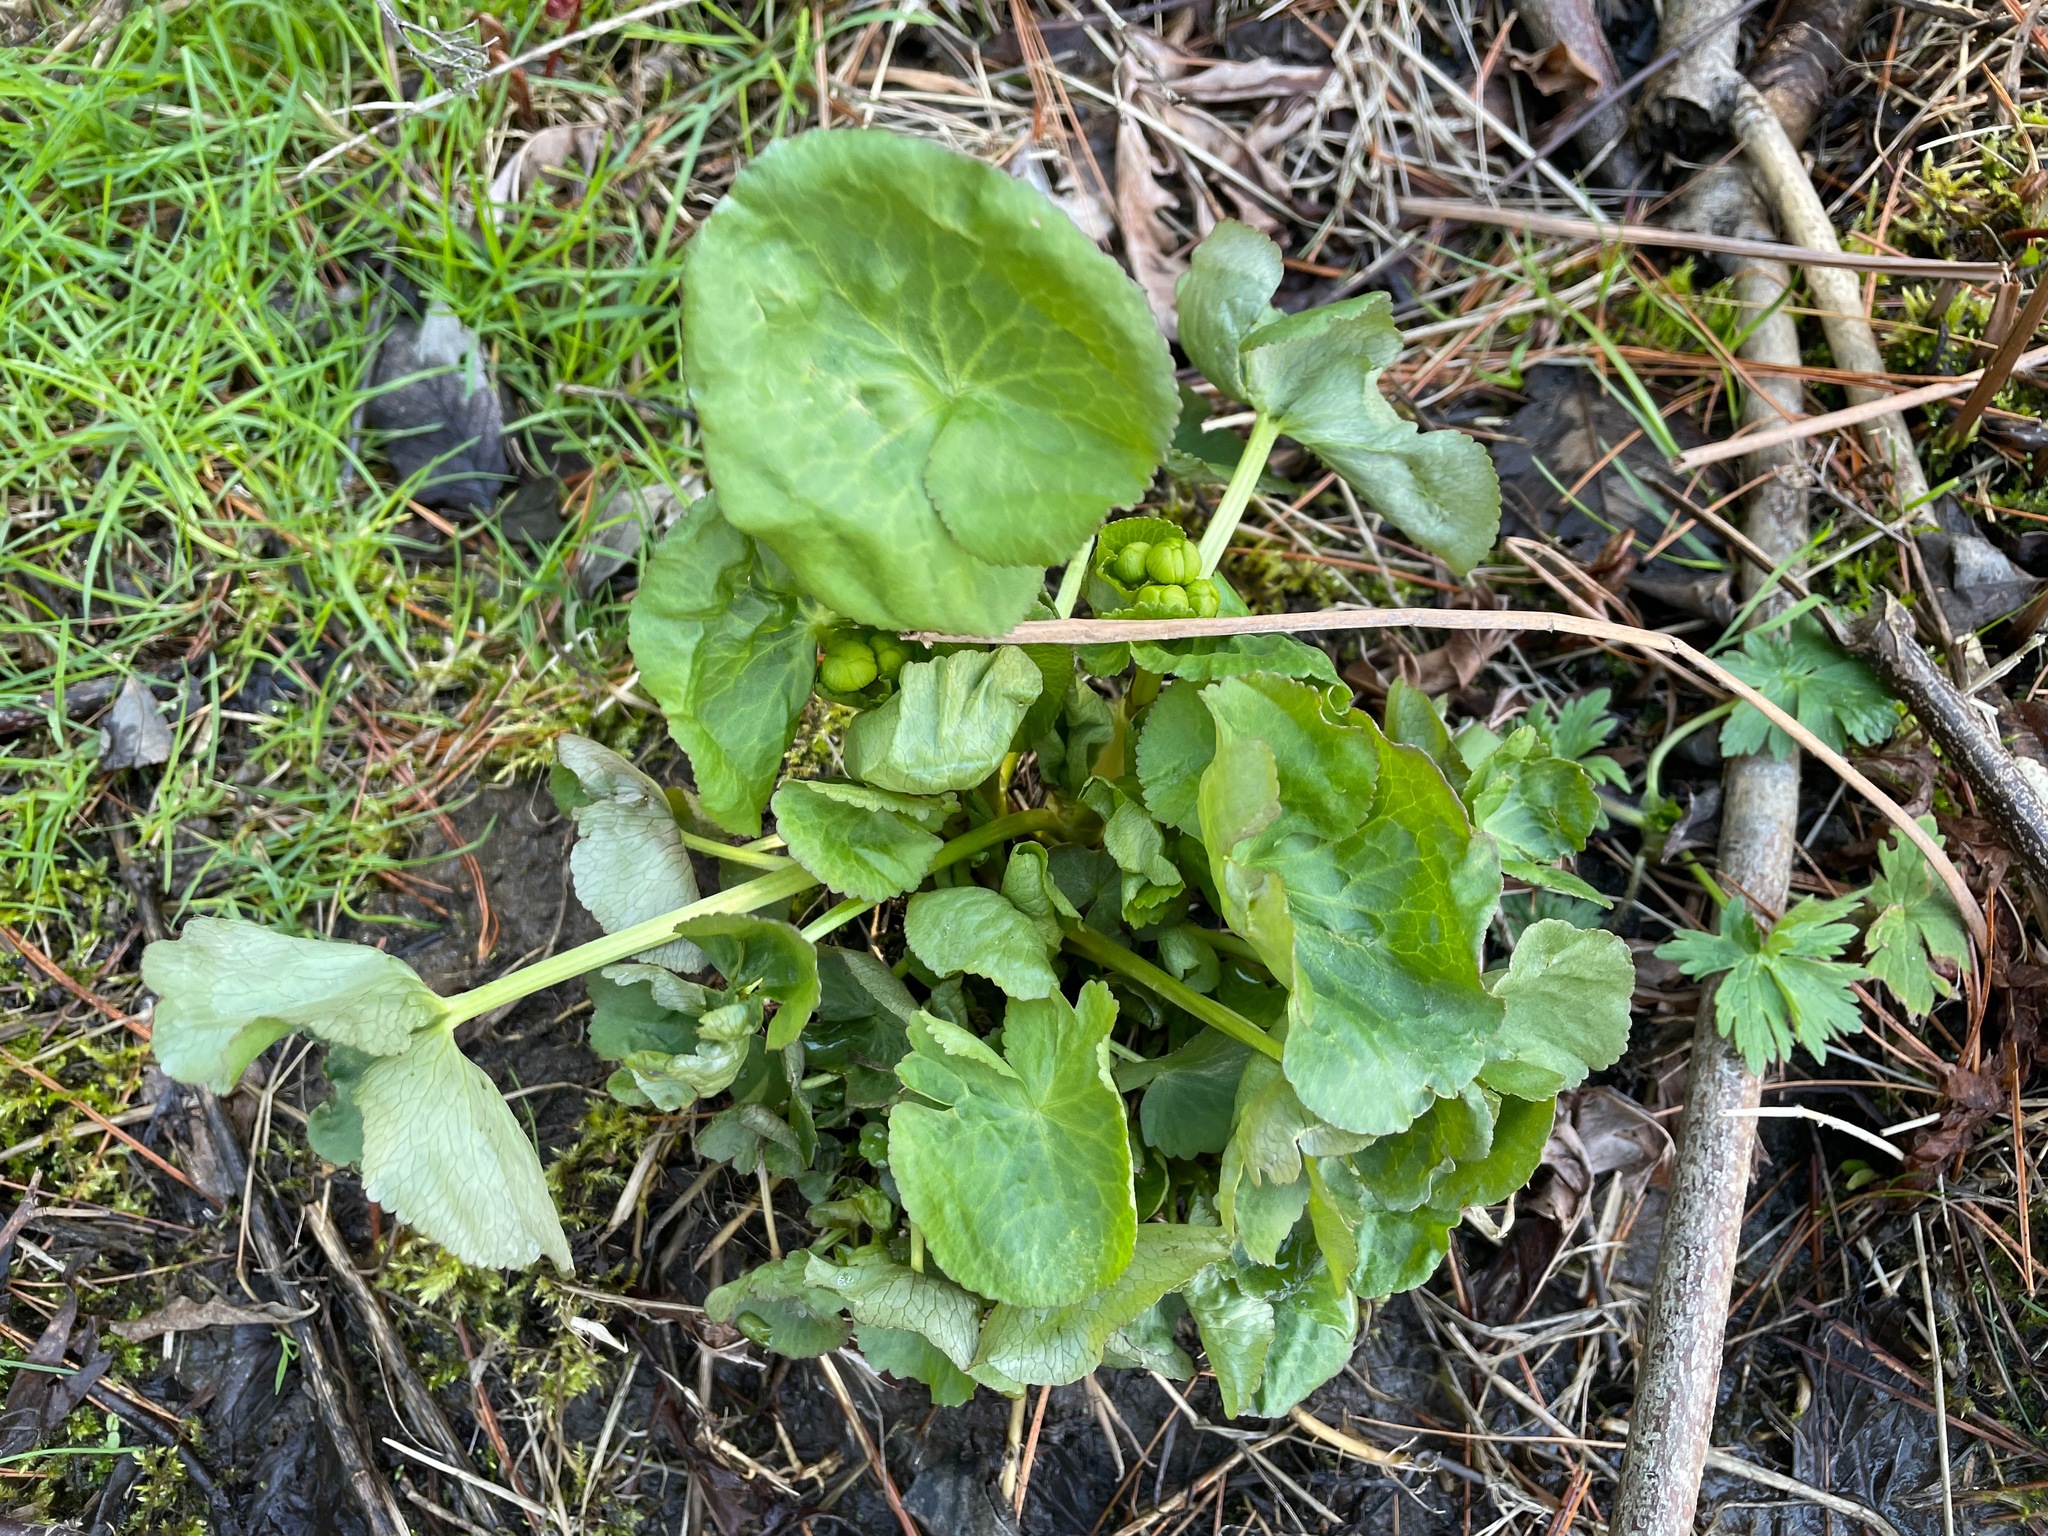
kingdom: Plantae
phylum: Tracheophyta
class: Magnoliopsida
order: Ranunculales
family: Ranunculaceae
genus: Caltha
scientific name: Caltha palustris
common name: Marsh marigold
